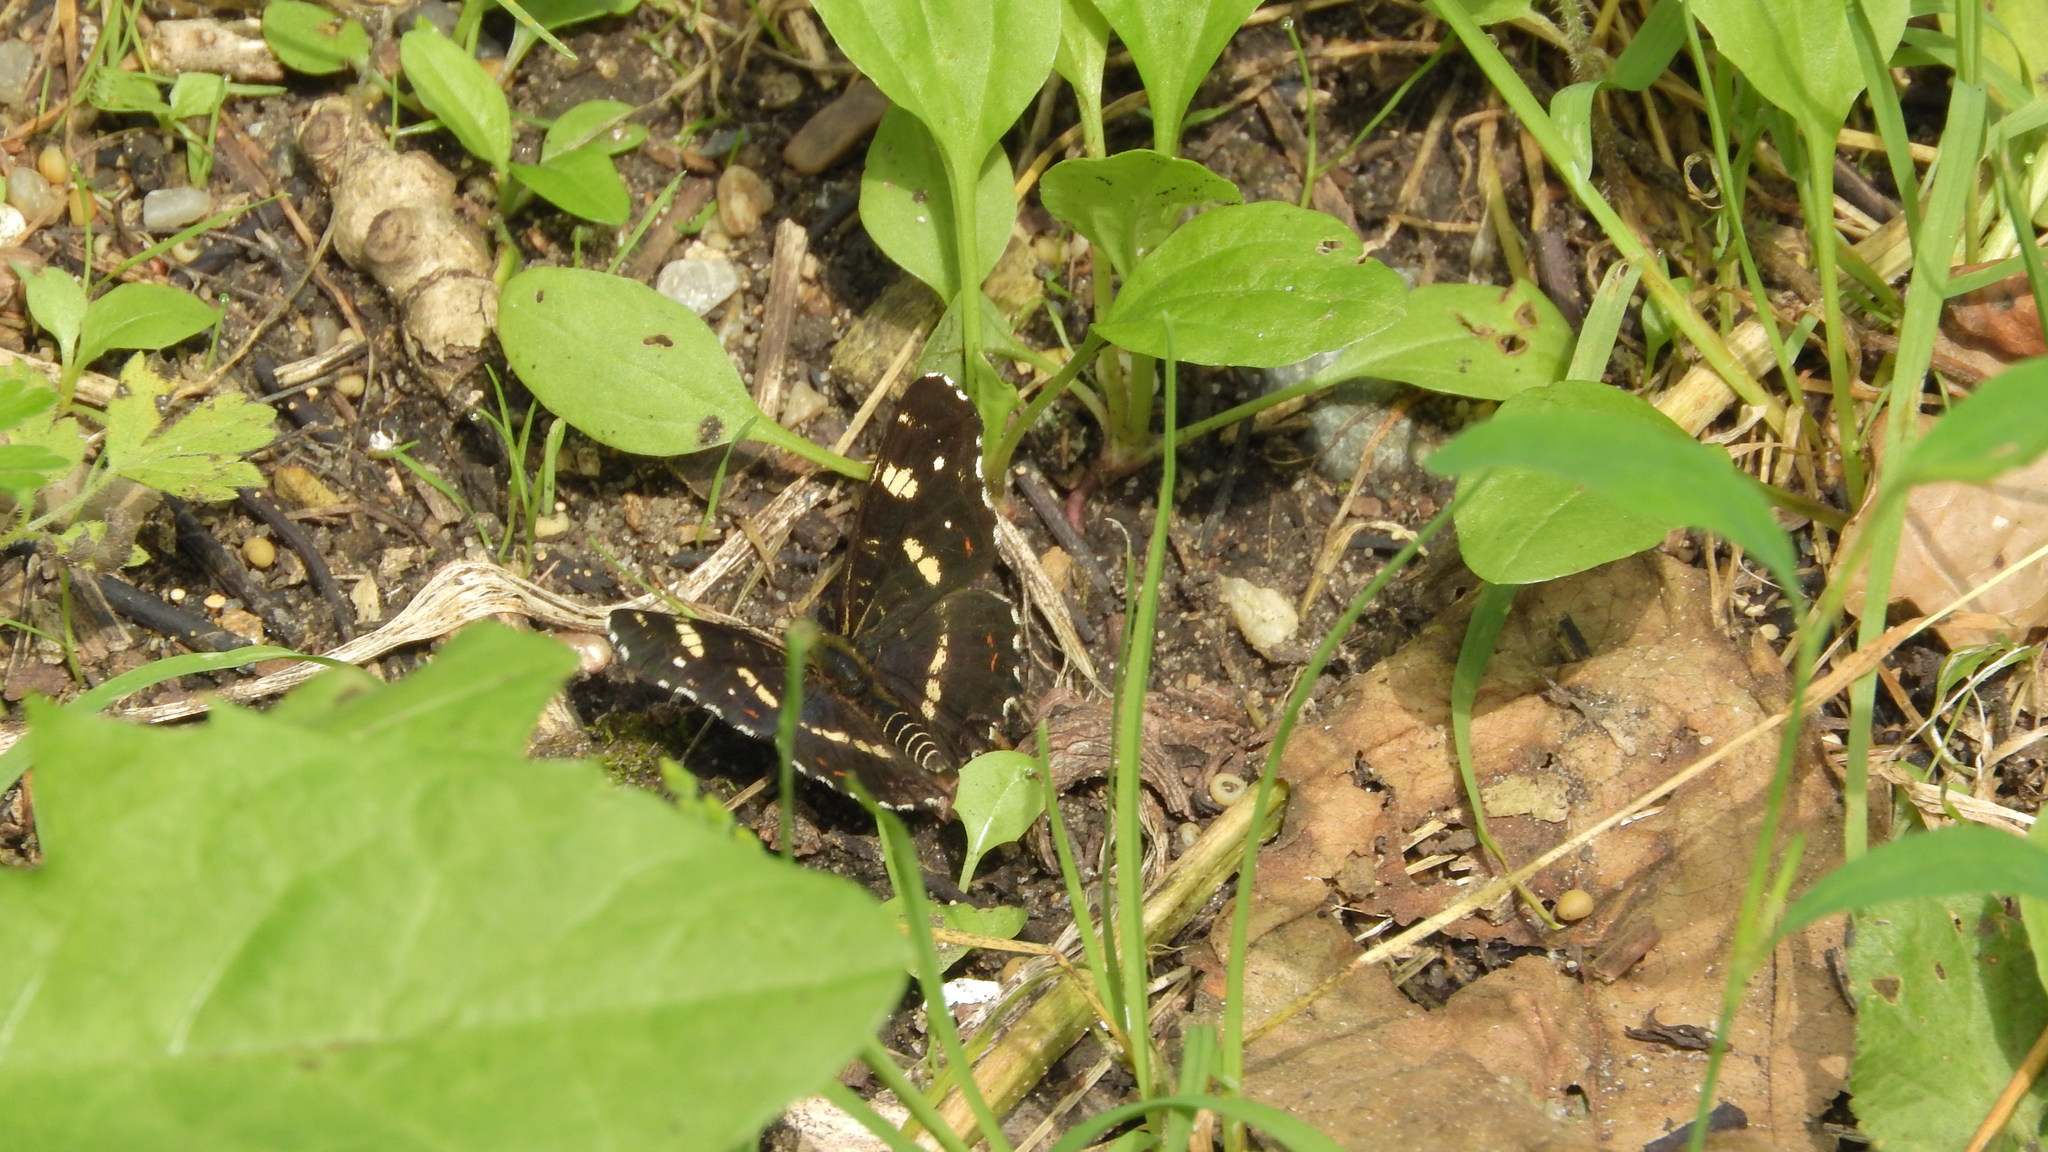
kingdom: Animalia
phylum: Arthropoda
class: Insecta
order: Lepidoptera
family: Nymphalidae
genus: Araschnia
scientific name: Araschnia levana
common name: Map butterfly
